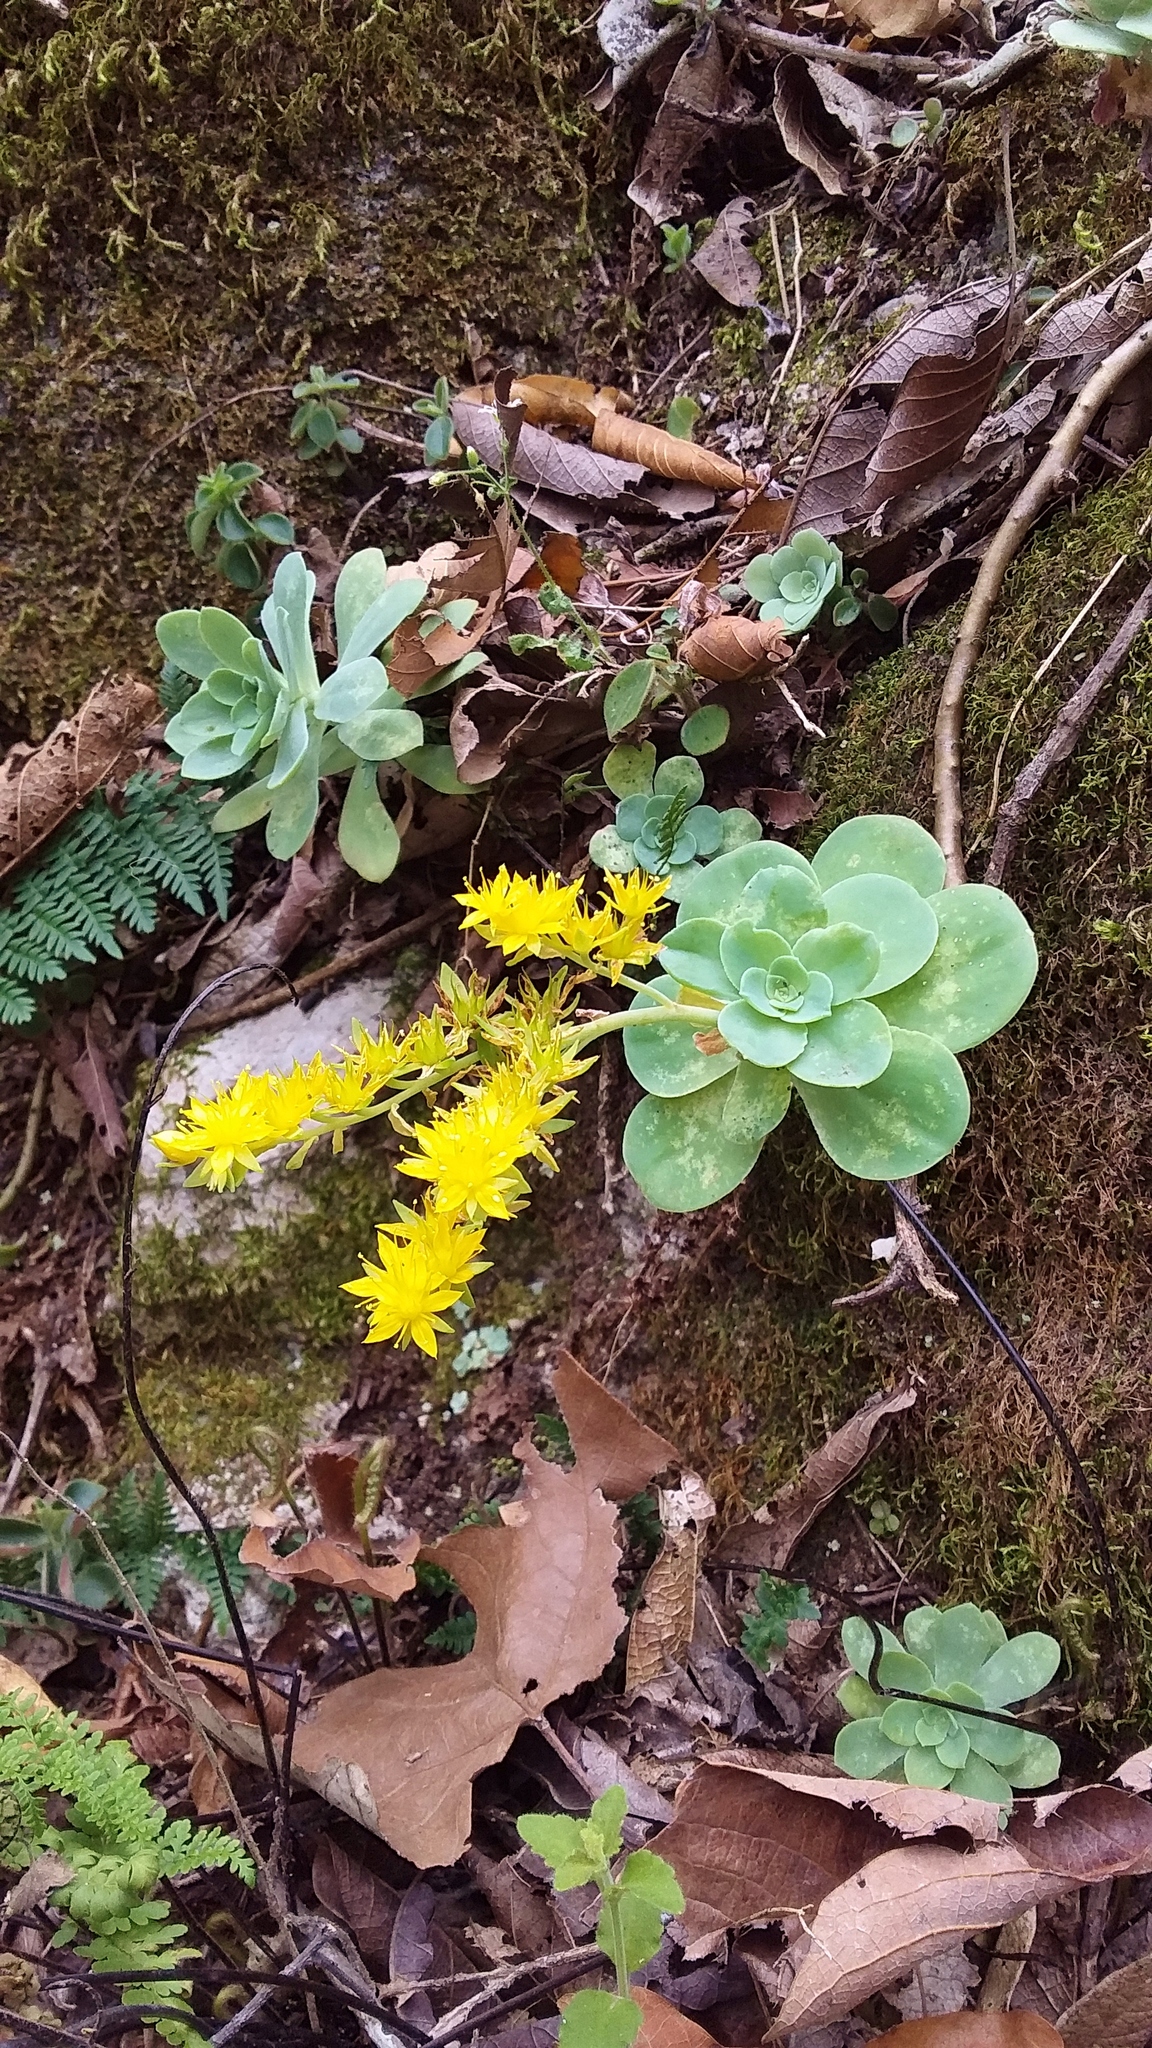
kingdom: Plantae
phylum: Tracheophyta
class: Magnoliopsida
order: Saxifragales
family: Crassulaceae
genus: Sedum
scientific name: Sedum palmeri
